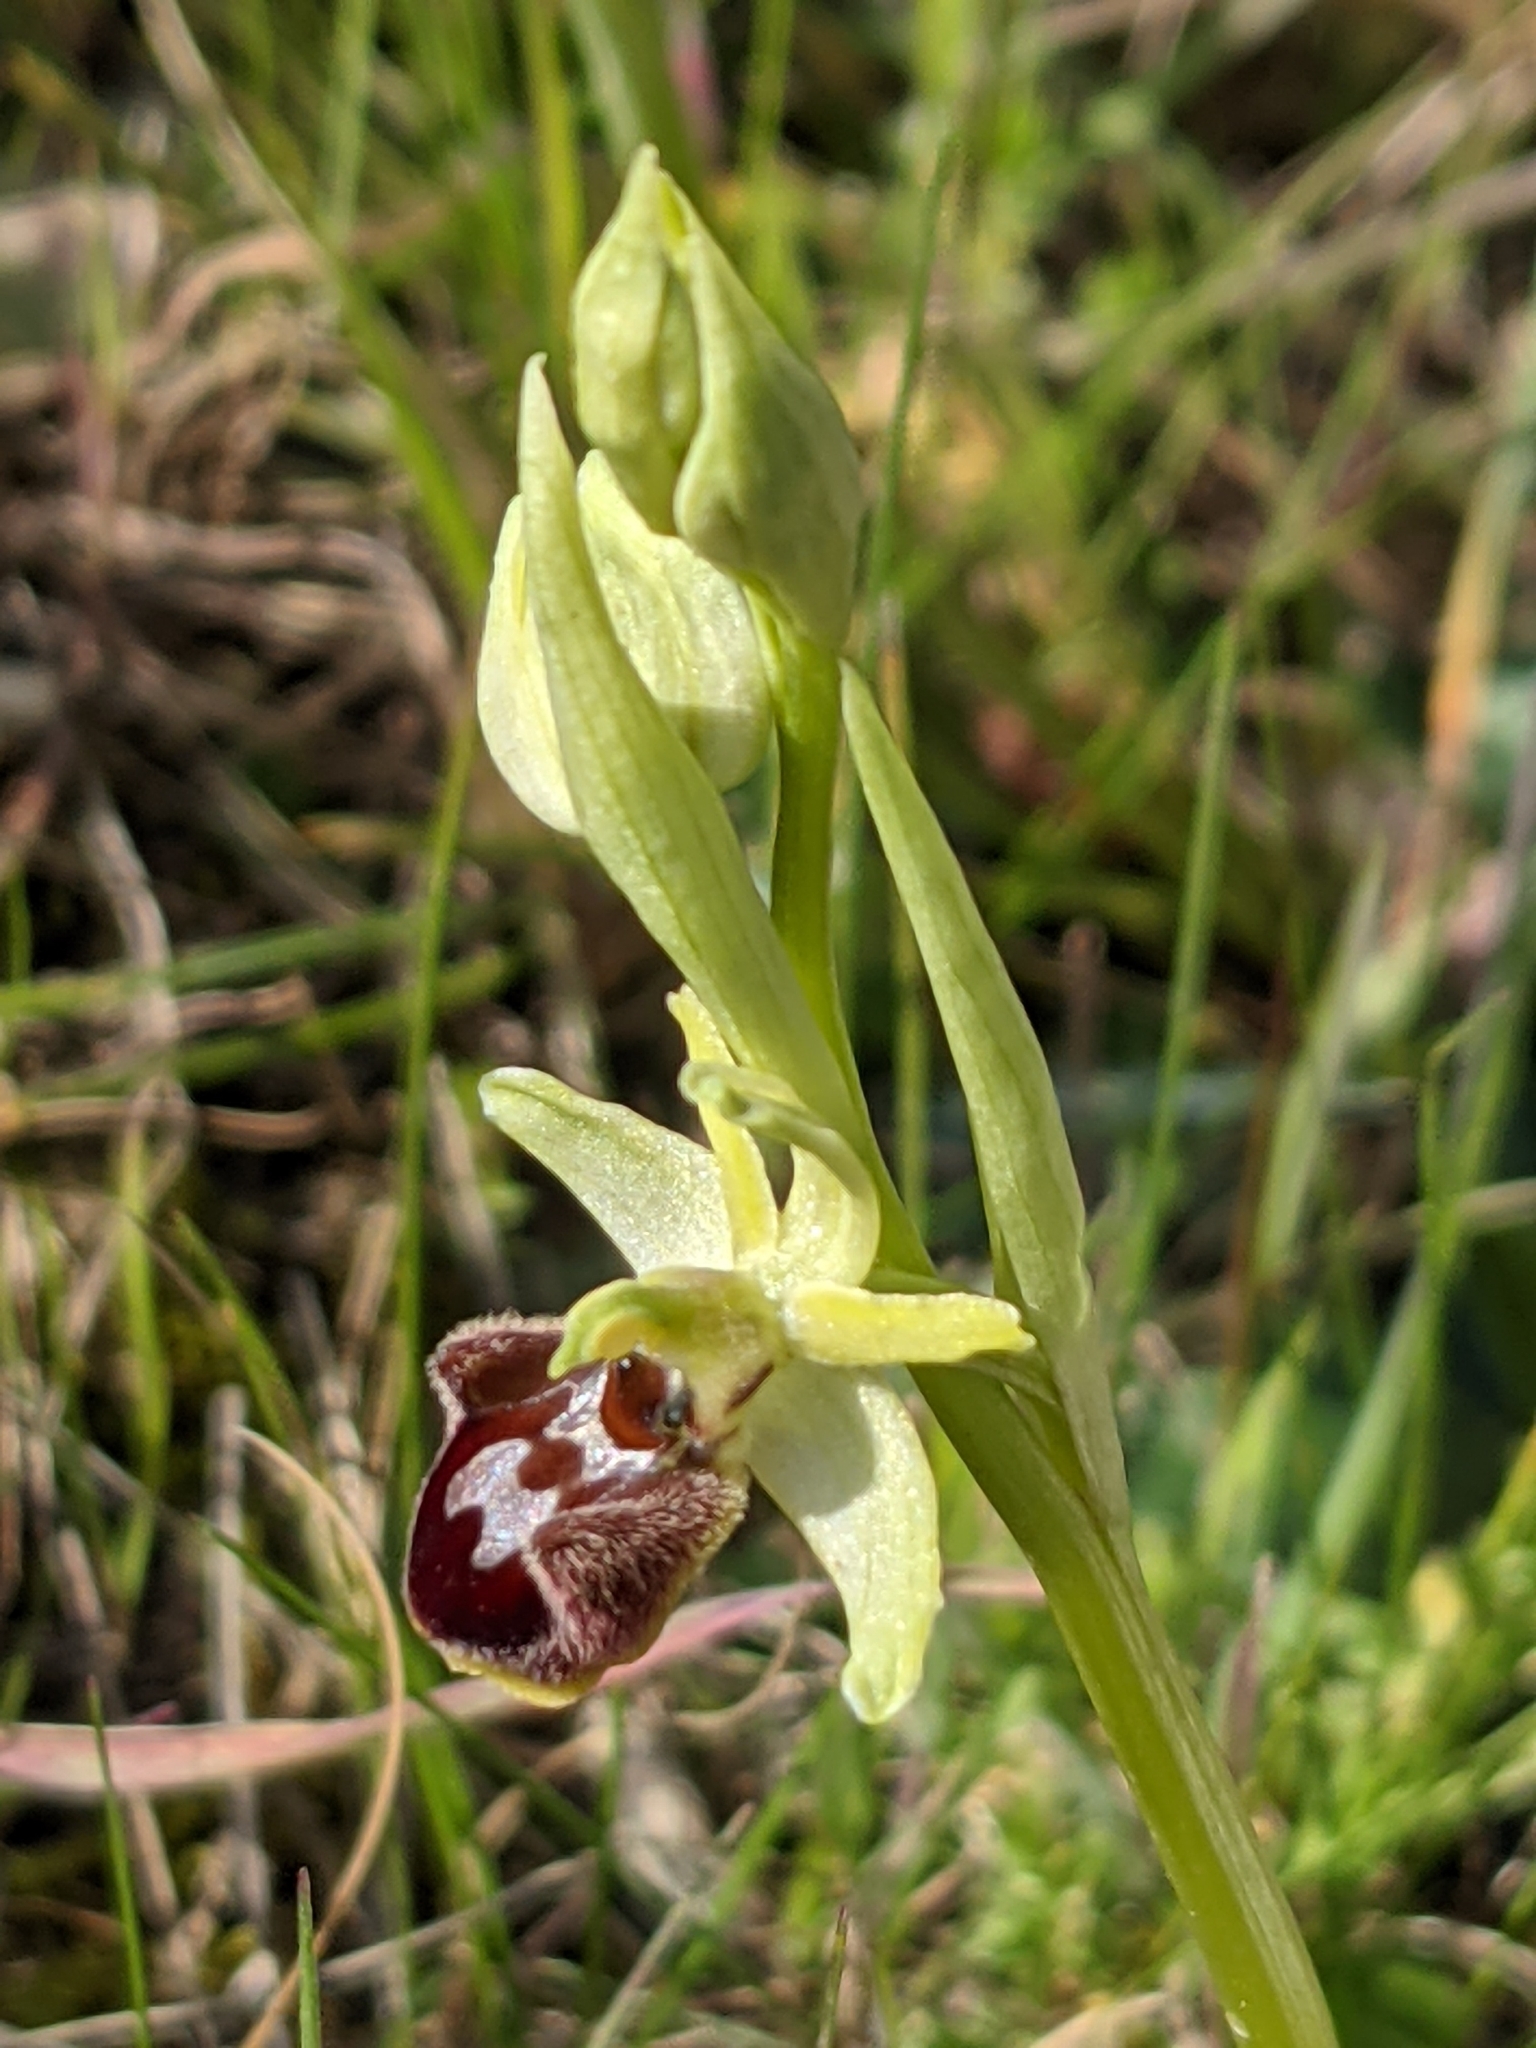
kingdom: Plantae
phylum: Tracheophyta
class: Liliopsida
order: Asparagales
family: Orchidaceae
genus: Ophrys
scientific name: Ophrys sphegodes
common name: Early spider-orchid
